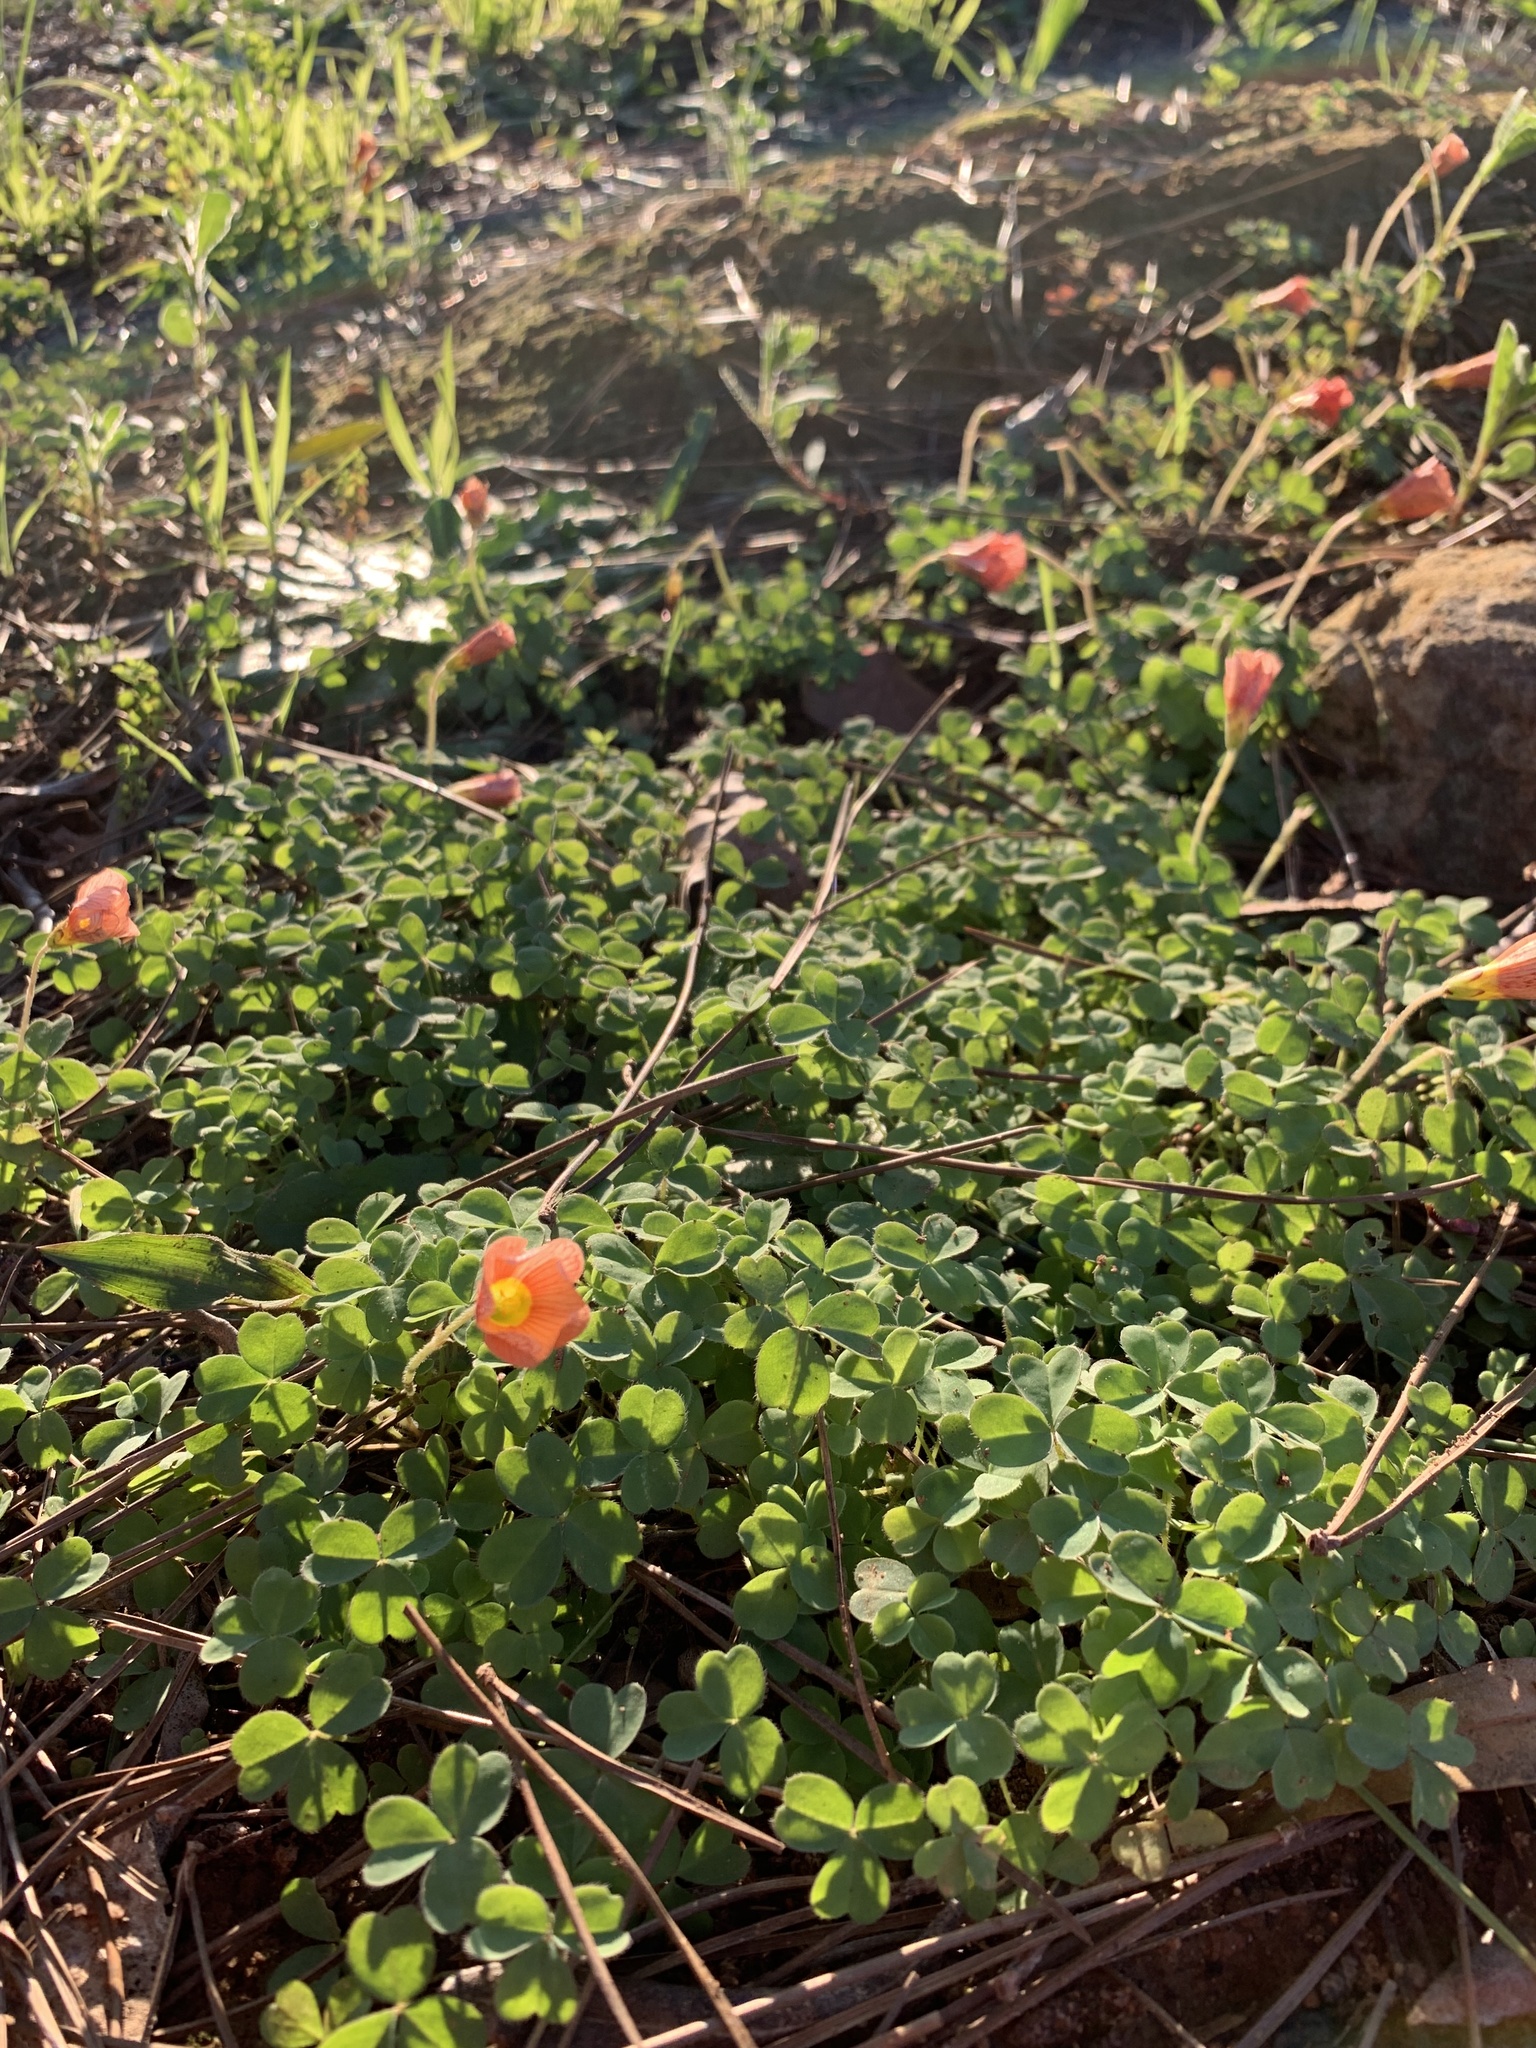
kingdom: Plantae
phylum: Tracheophyta
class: Magnoliopsida
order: Oxalidales
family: Oxalidaceae
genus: Oxalis
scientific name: Oxalis obtusa
